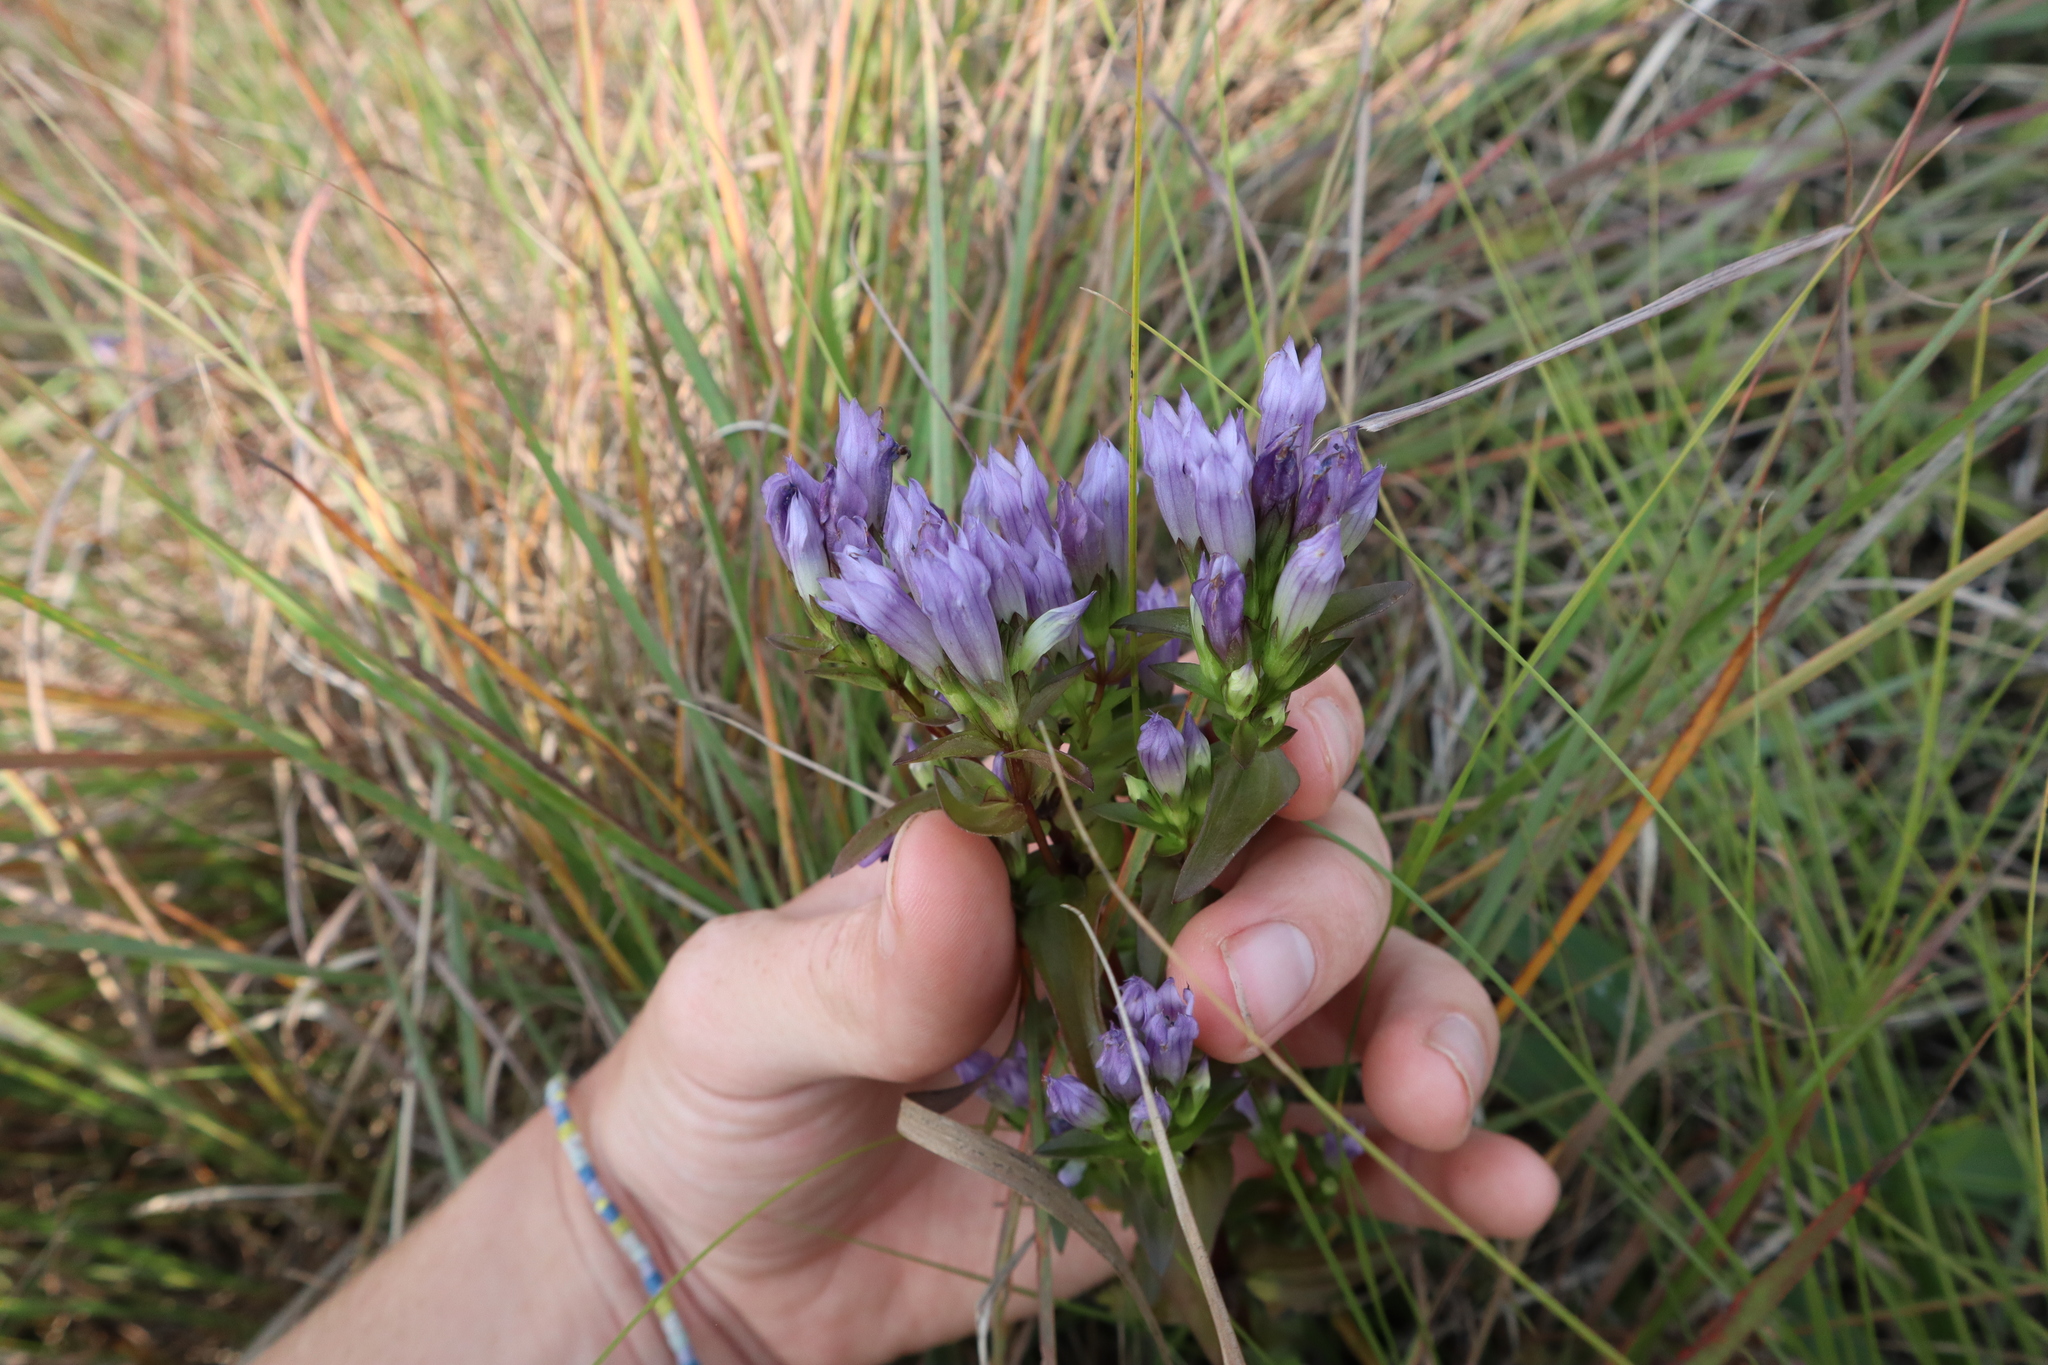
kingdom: Plantae
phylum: Tracheophyta
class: Magnoliopsida
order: Gentianales
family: Gentianaceae
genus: Gentianella
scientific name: Gentianella quinquefolia
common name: Agueweed
